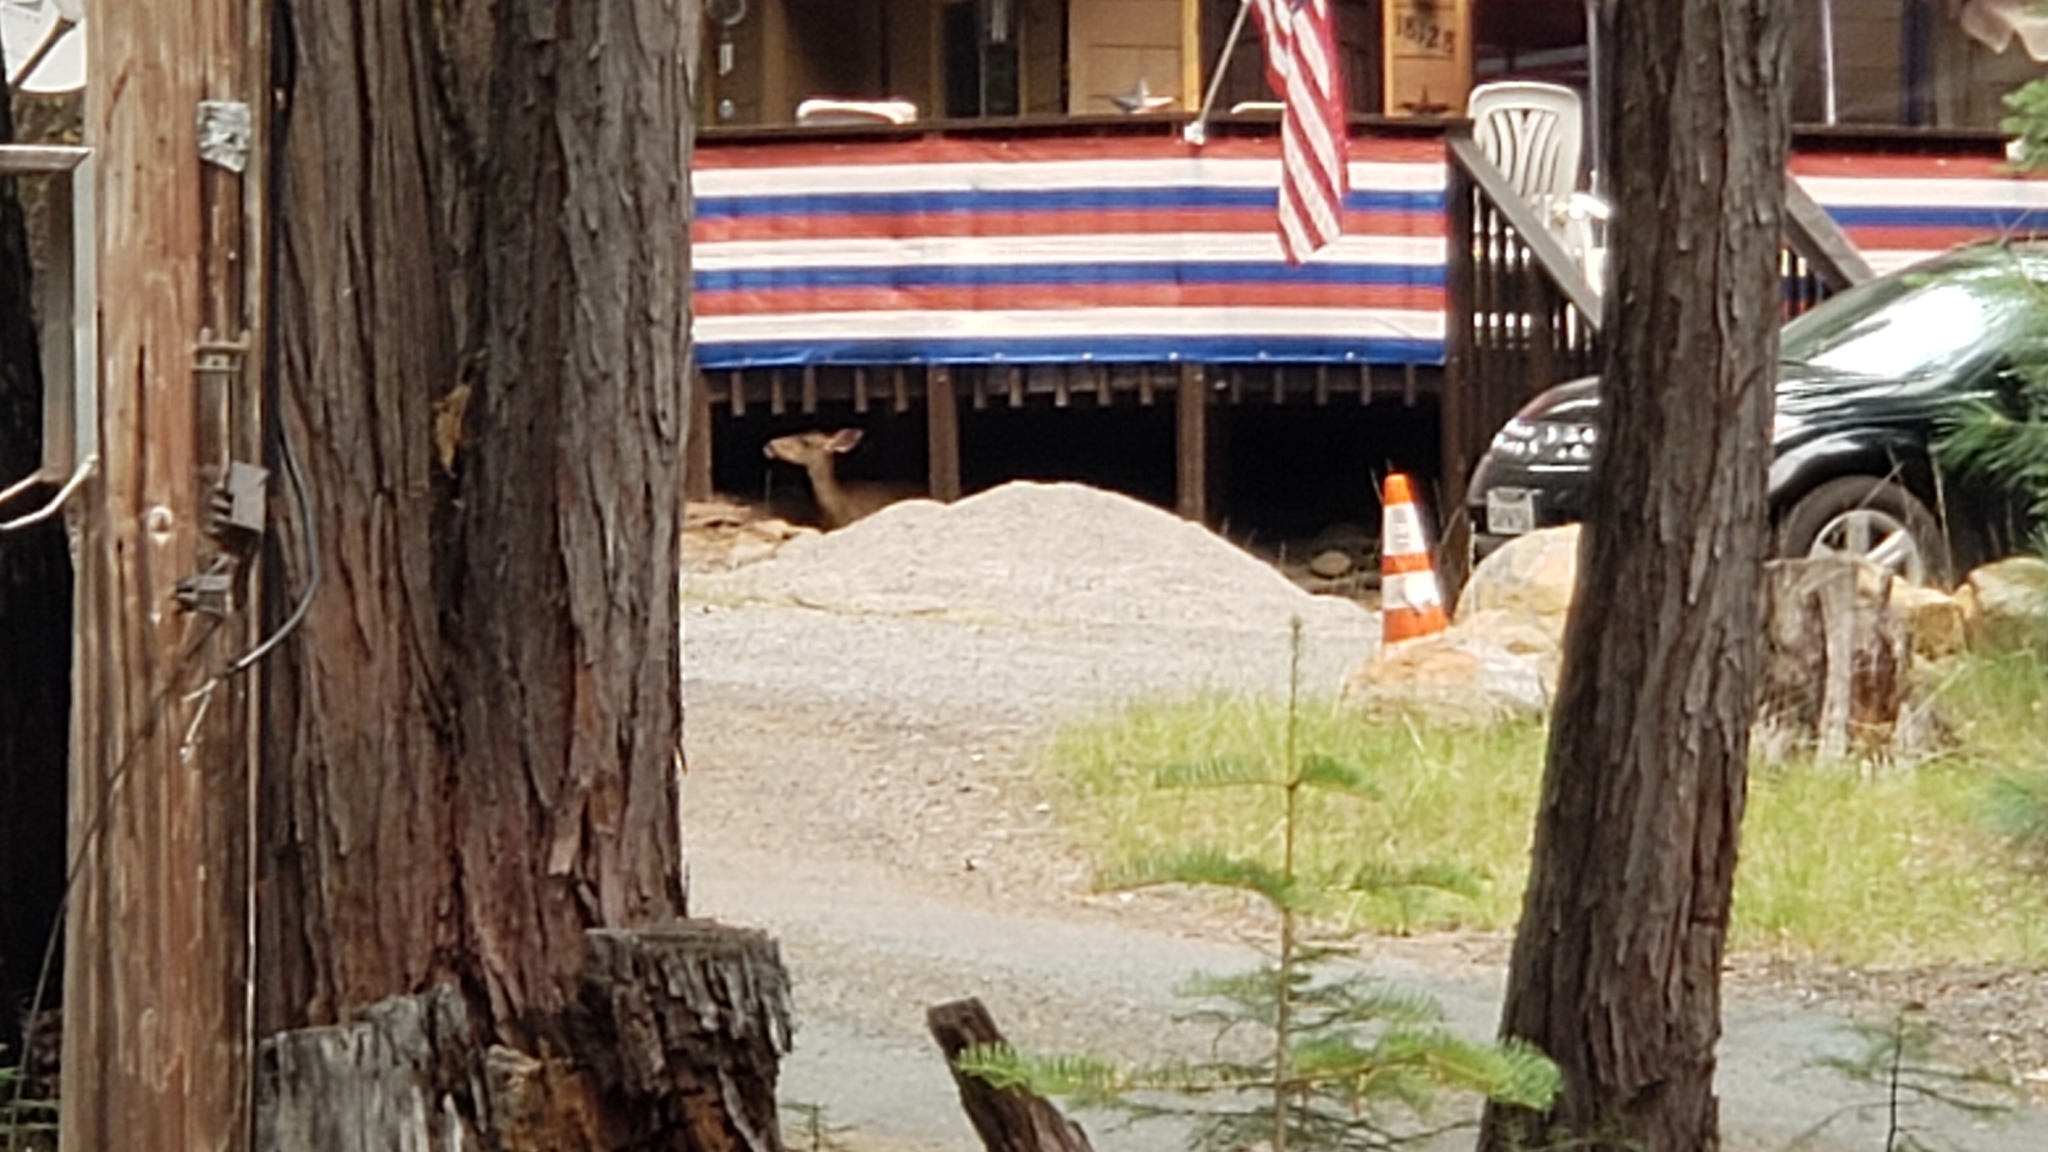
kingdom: Animalia
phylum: Chordata
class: Mammalia
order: Artiodactyla
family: Cervidae
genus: Odocoileus
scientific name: Odocoileus hemionus
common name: Mule deer
